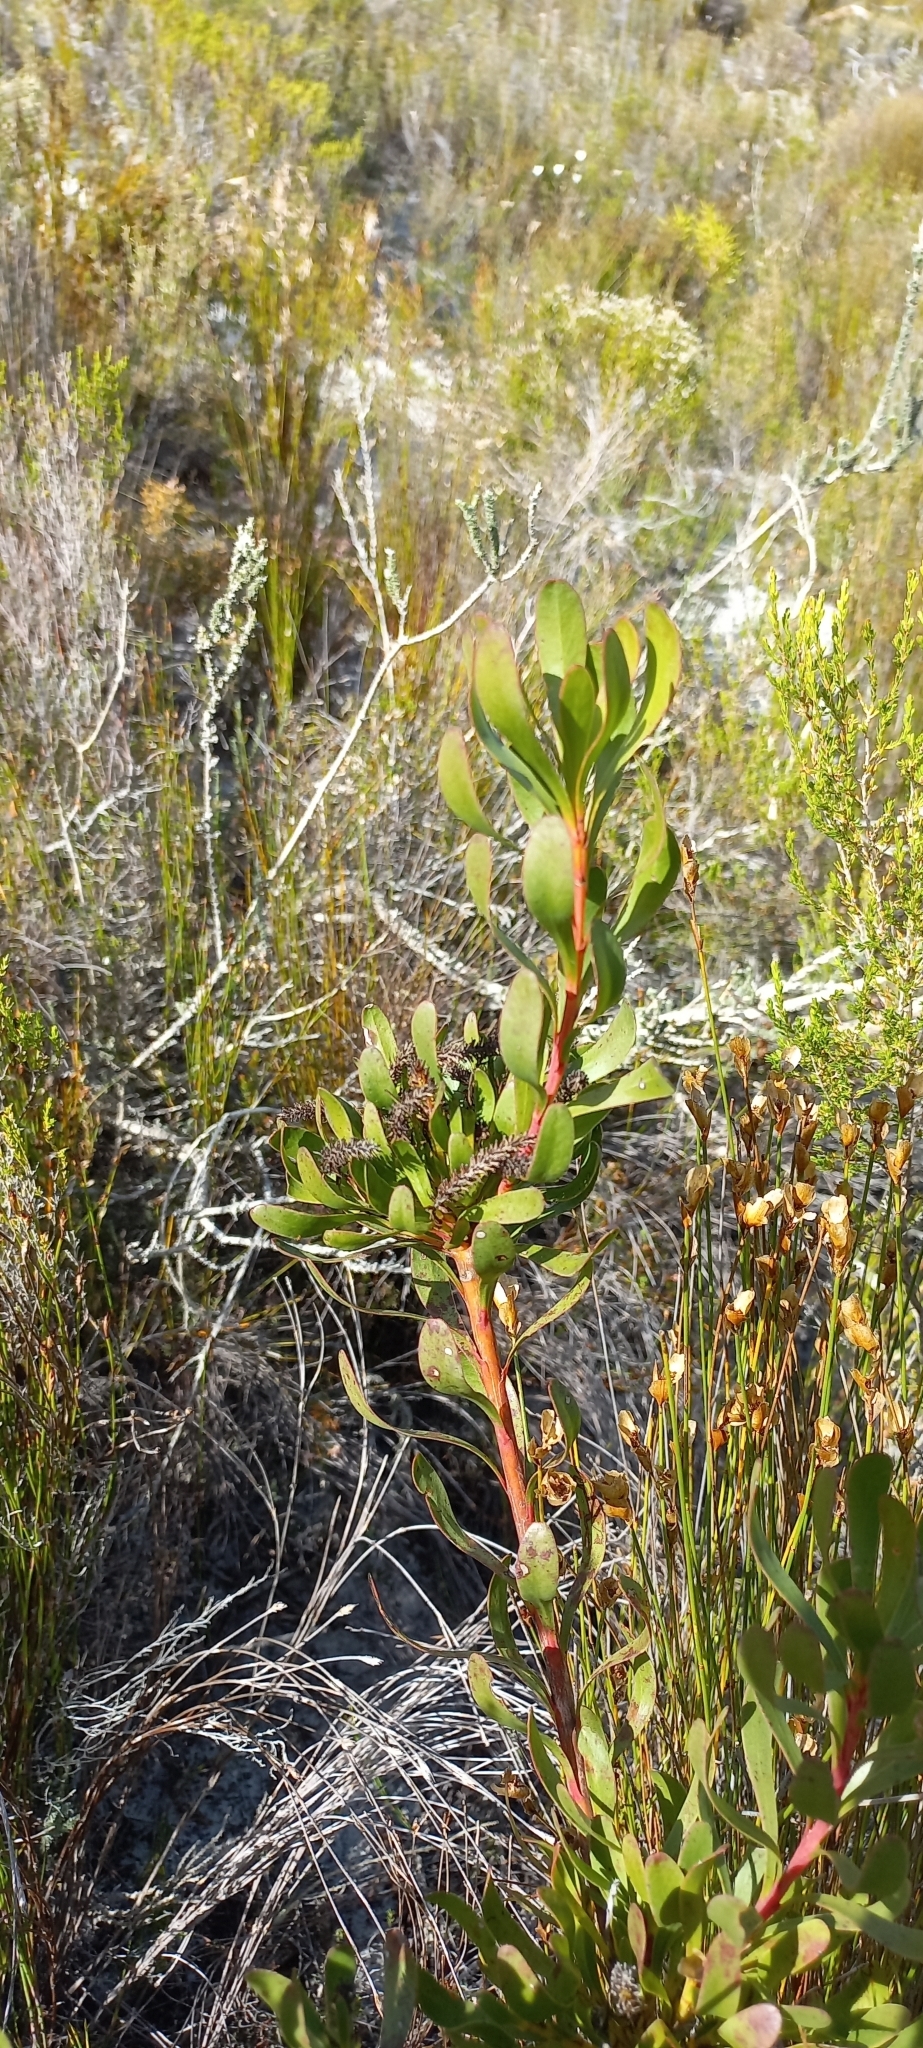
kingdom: Plantae
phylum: Tracheophyta
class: Magnoliopsida
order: Proteales
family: Proteaceae
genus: Aulax
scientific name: Aulax umbellata
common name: Broad-leaf featherbush
